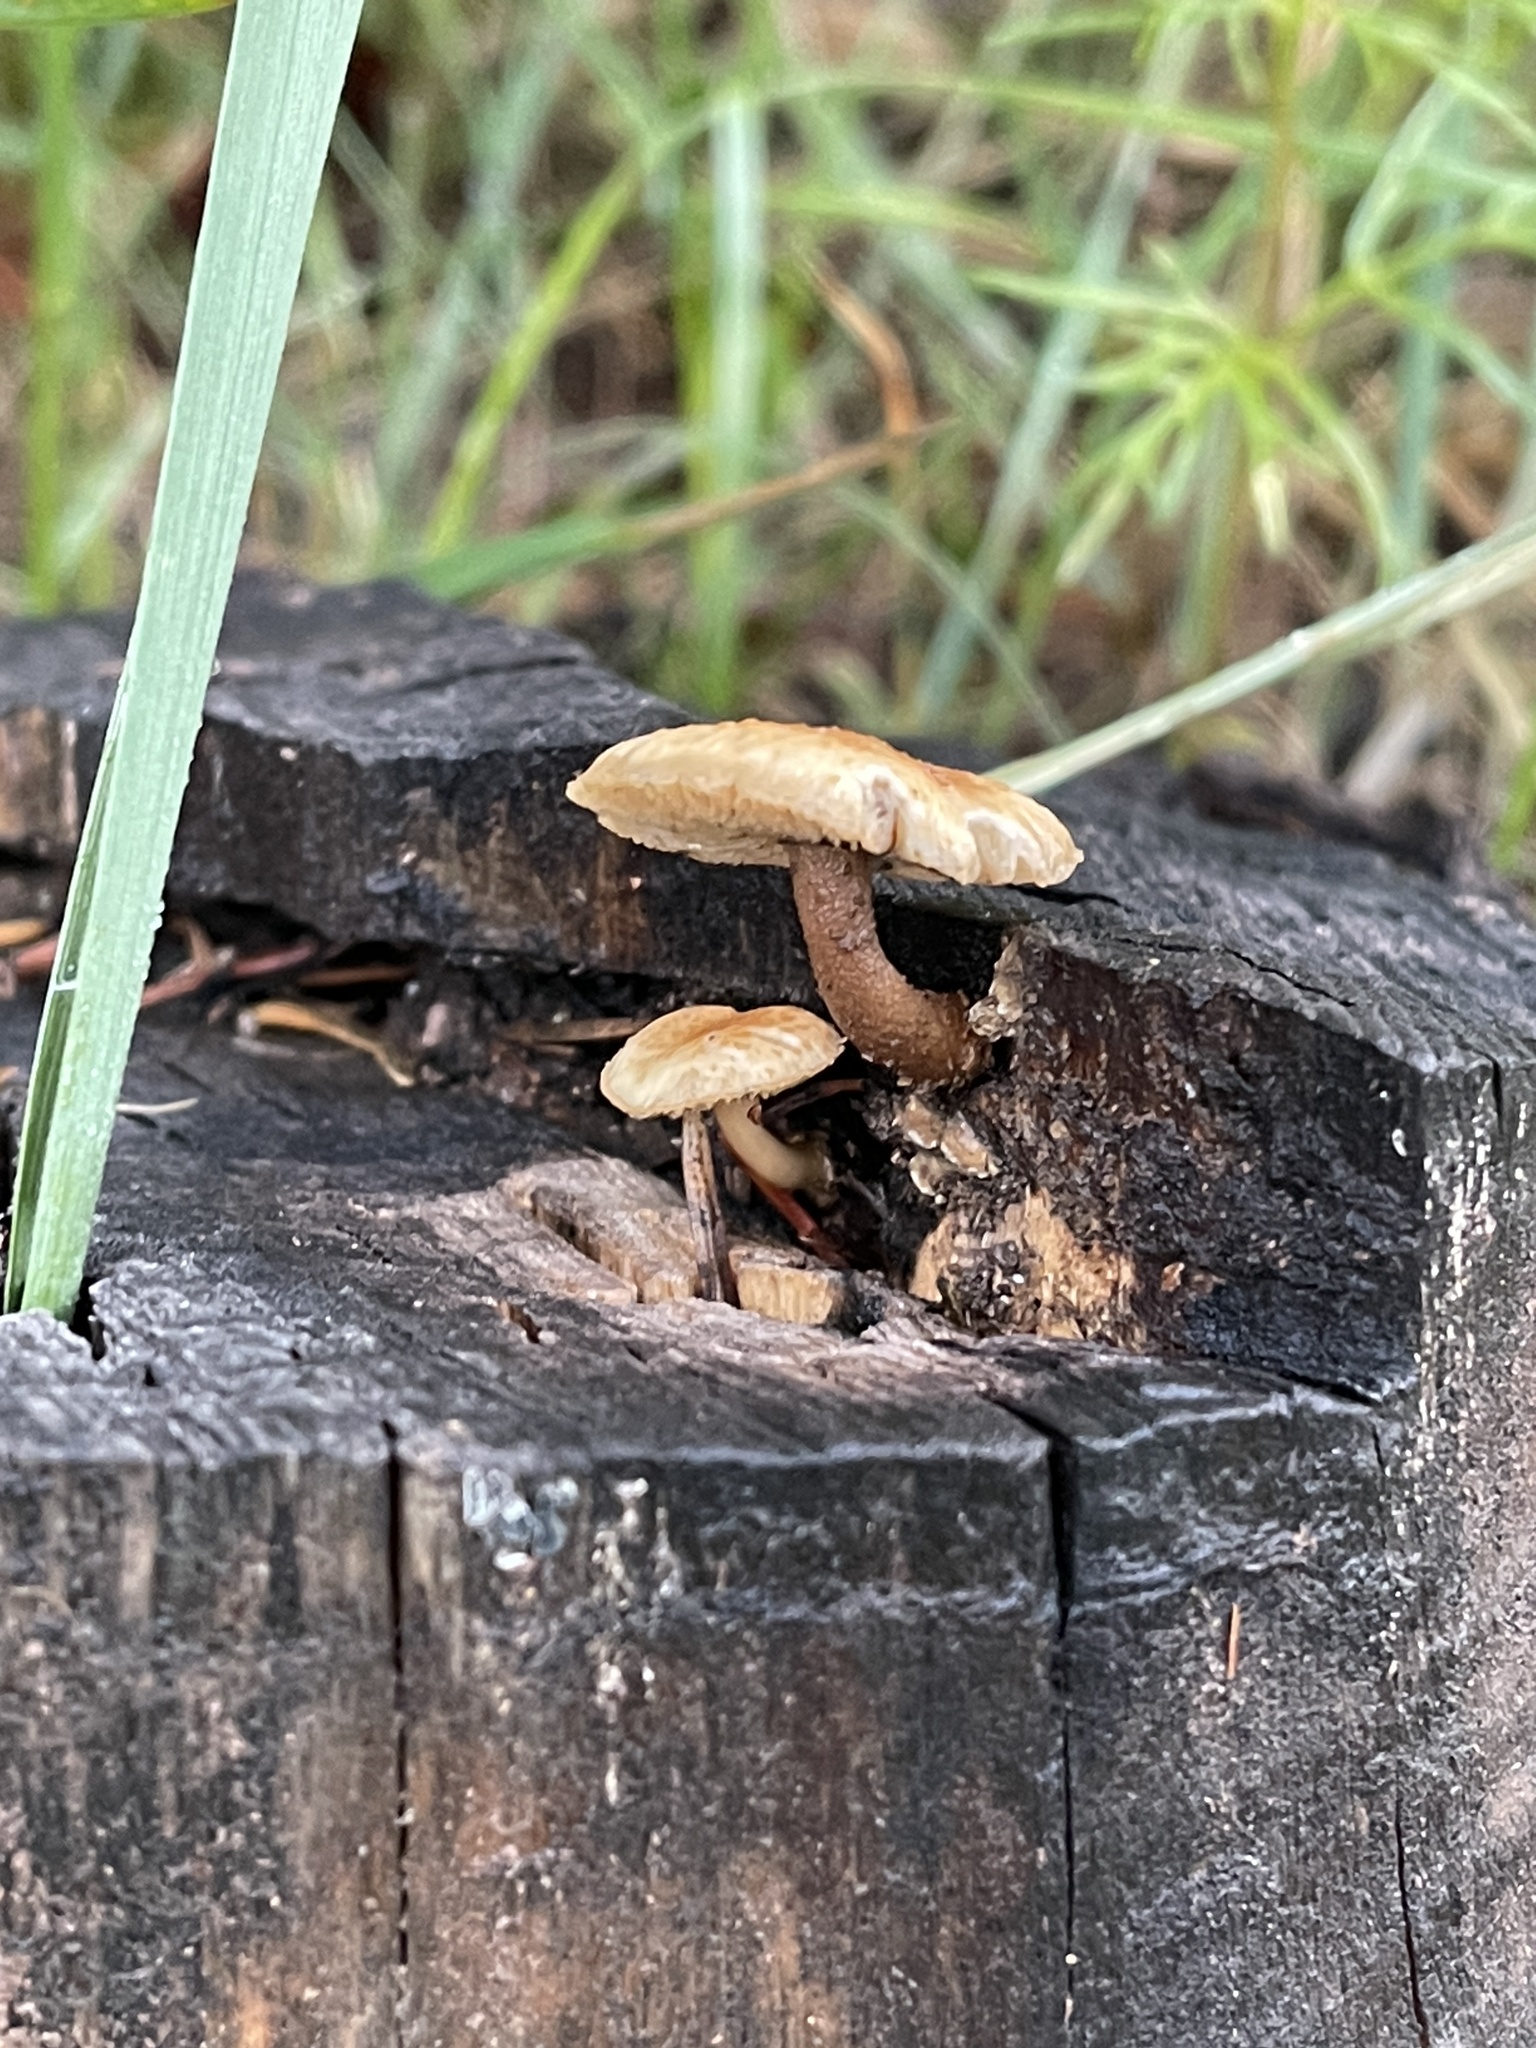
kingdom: Fungi
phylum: Basidiomycota
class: Agaricomycetes
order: Gloeophyllales
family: Gloeophyllaceae
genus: Heliocybe
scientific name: Heliocybe sulcata
